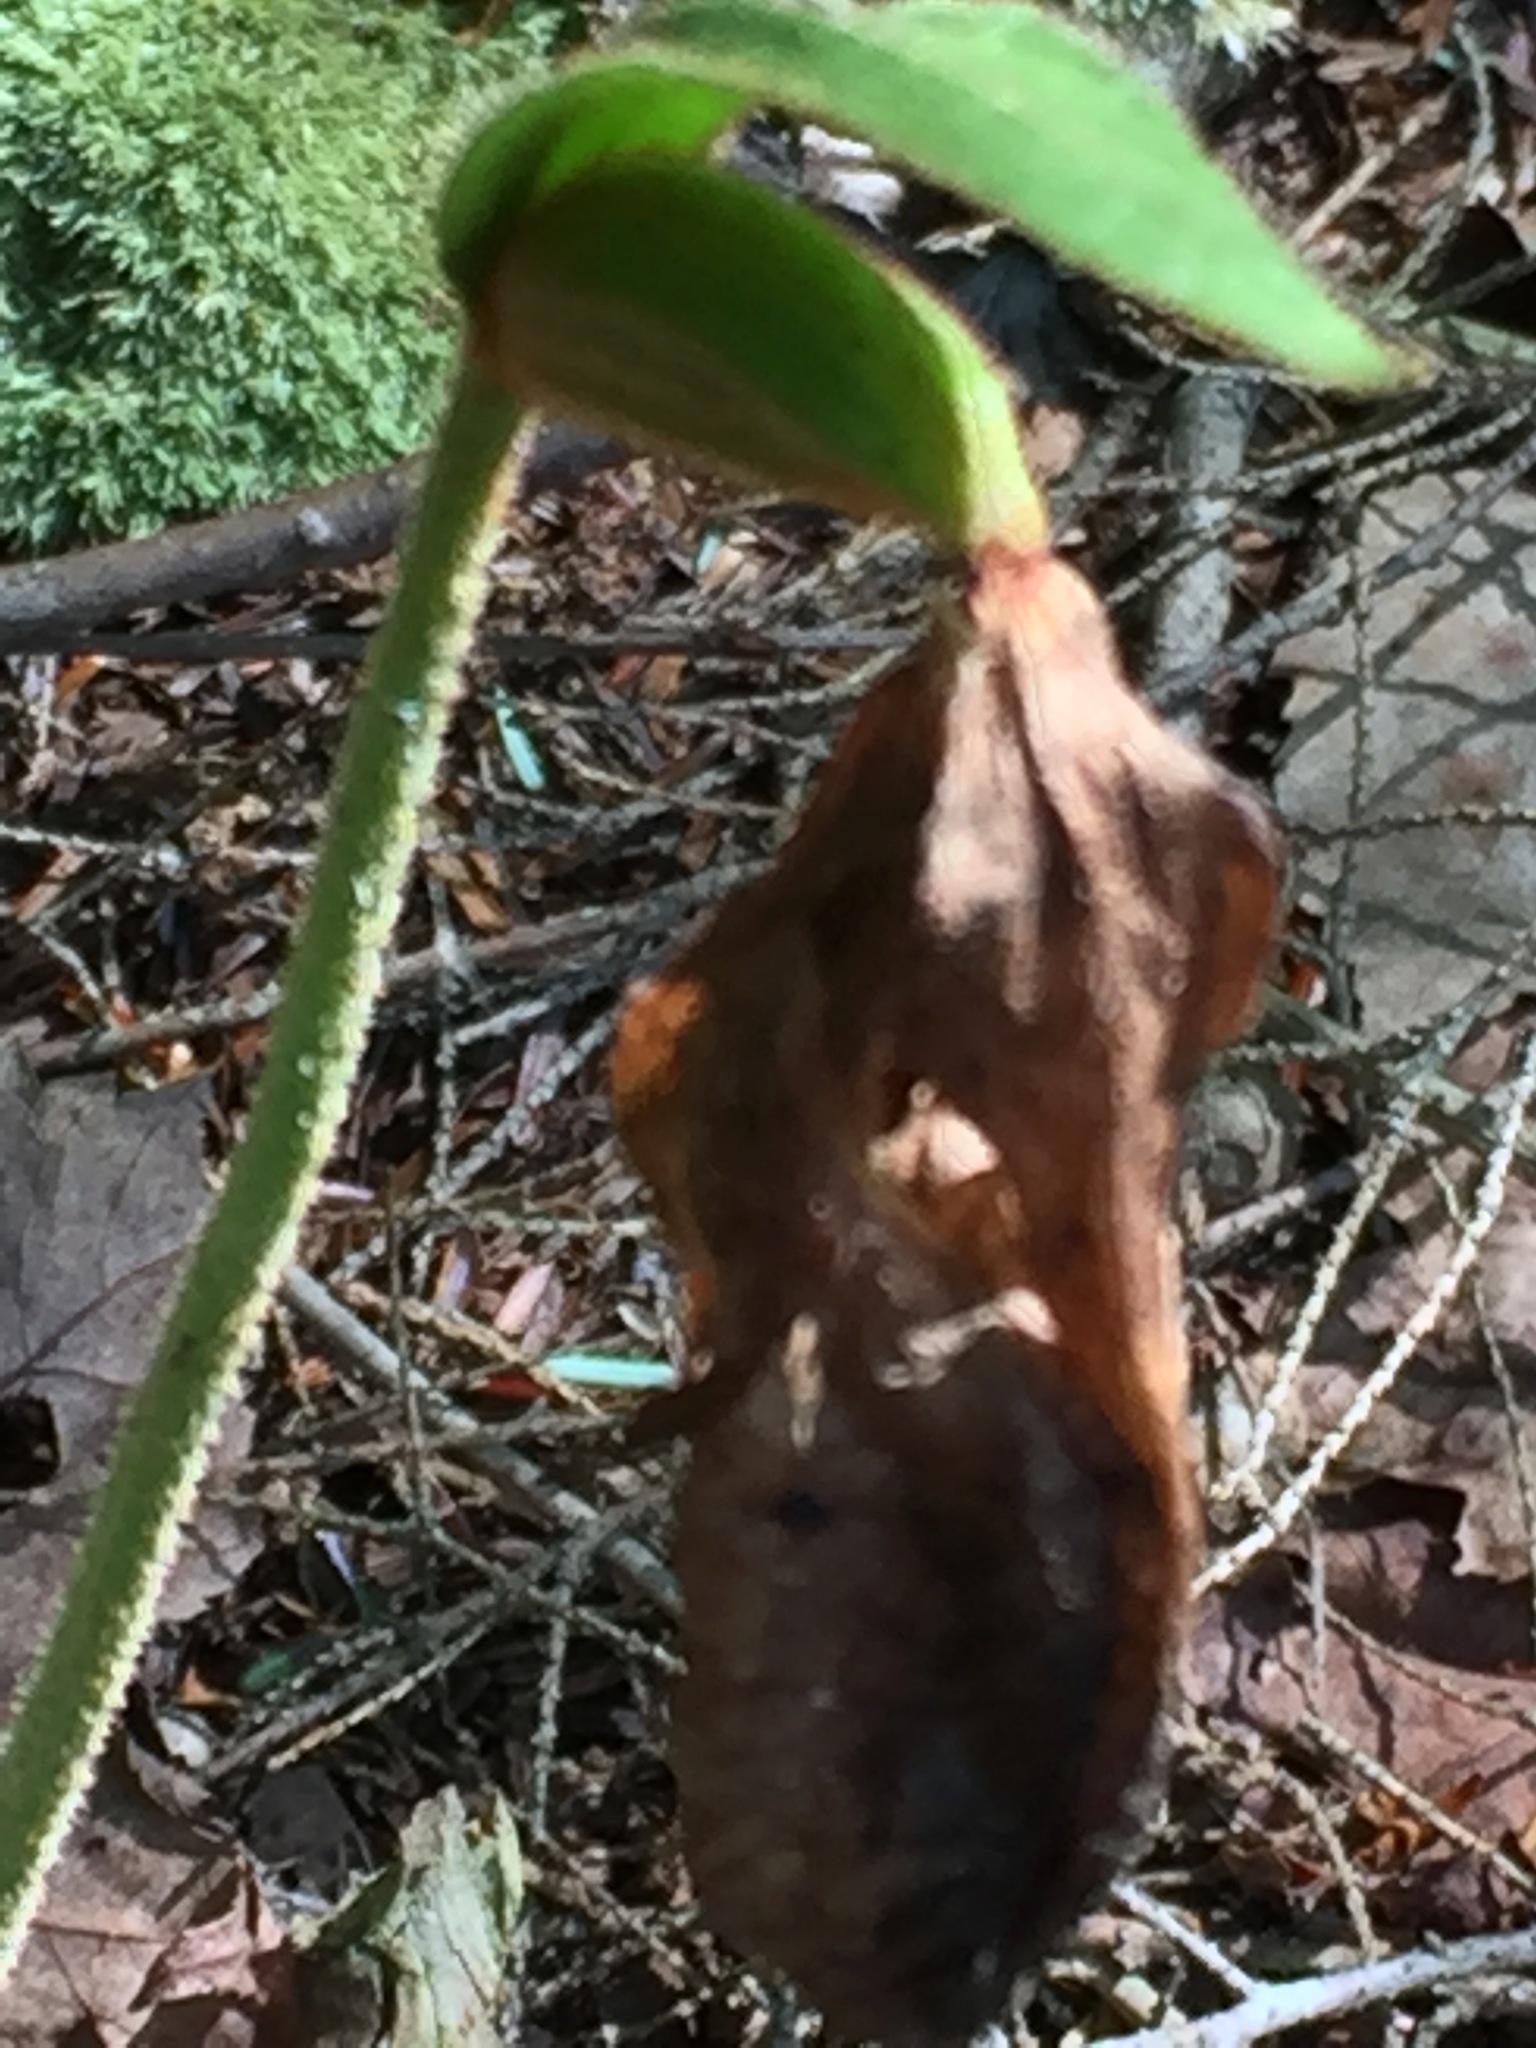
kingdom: Plantae
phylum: Tracheophyta
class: Liliopsida
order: Asparagales
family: Orchidaceae
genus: Cypripedium
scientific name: Cypripedium acaule
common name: Pink lady's-slipper
